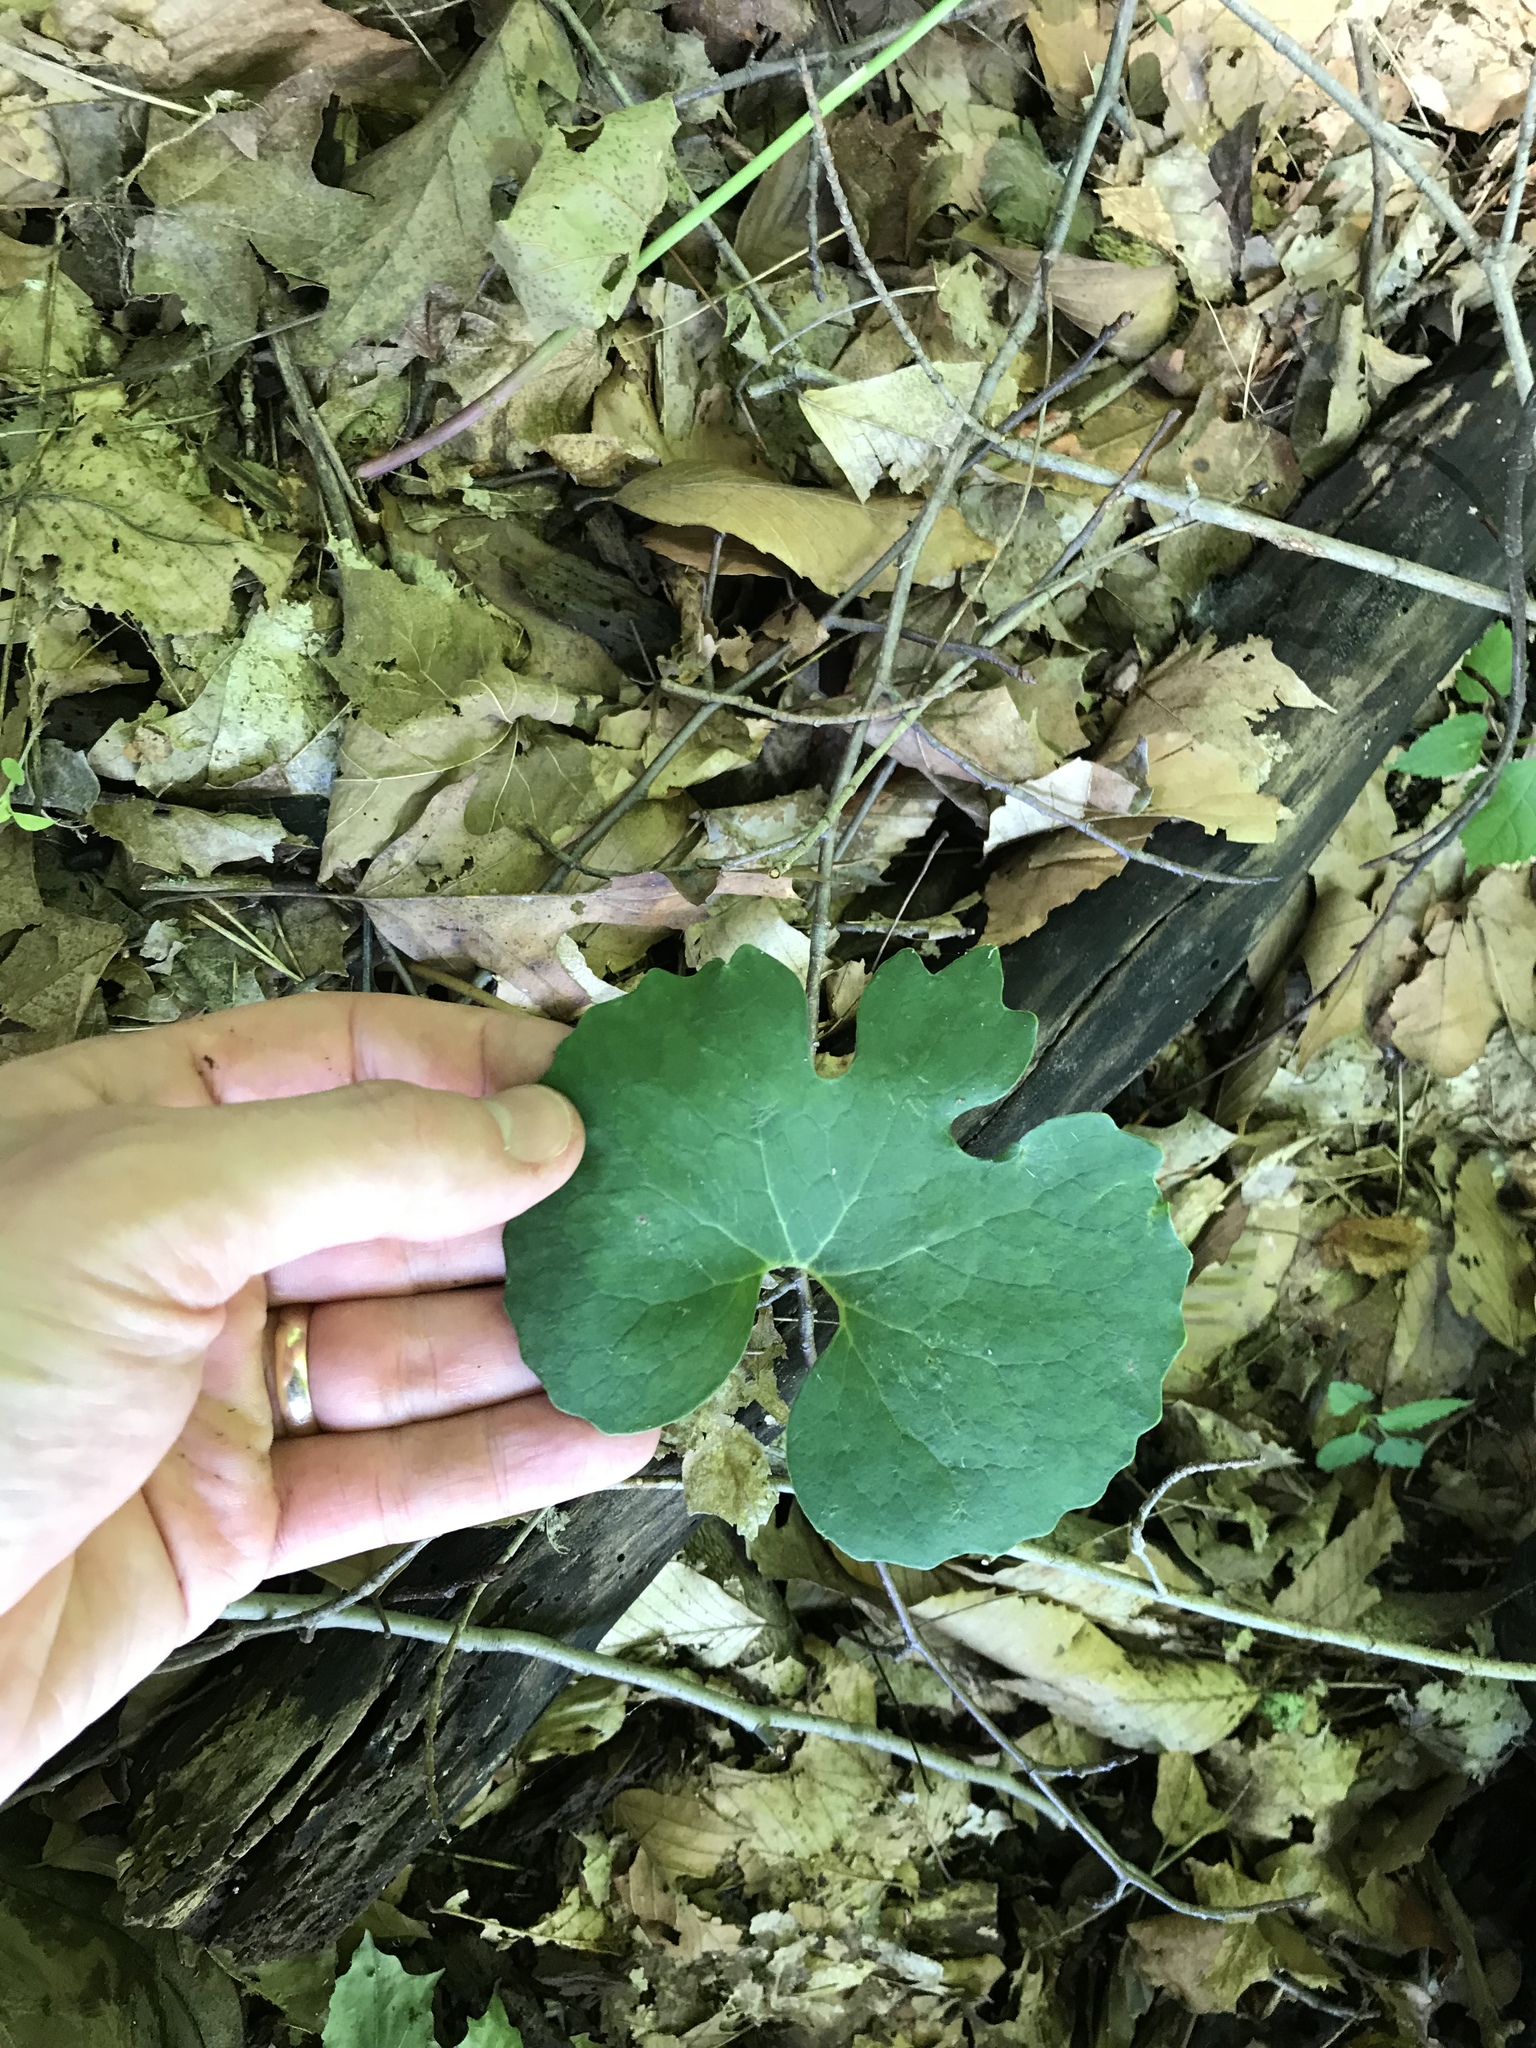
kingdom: Plantae
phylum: Tracheophyta
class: Magnoliopsida
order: Ranunculales
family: Papaveraceae
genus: Sanguinaria
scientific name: Sanguinaria canadensis
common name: Bloodroot
